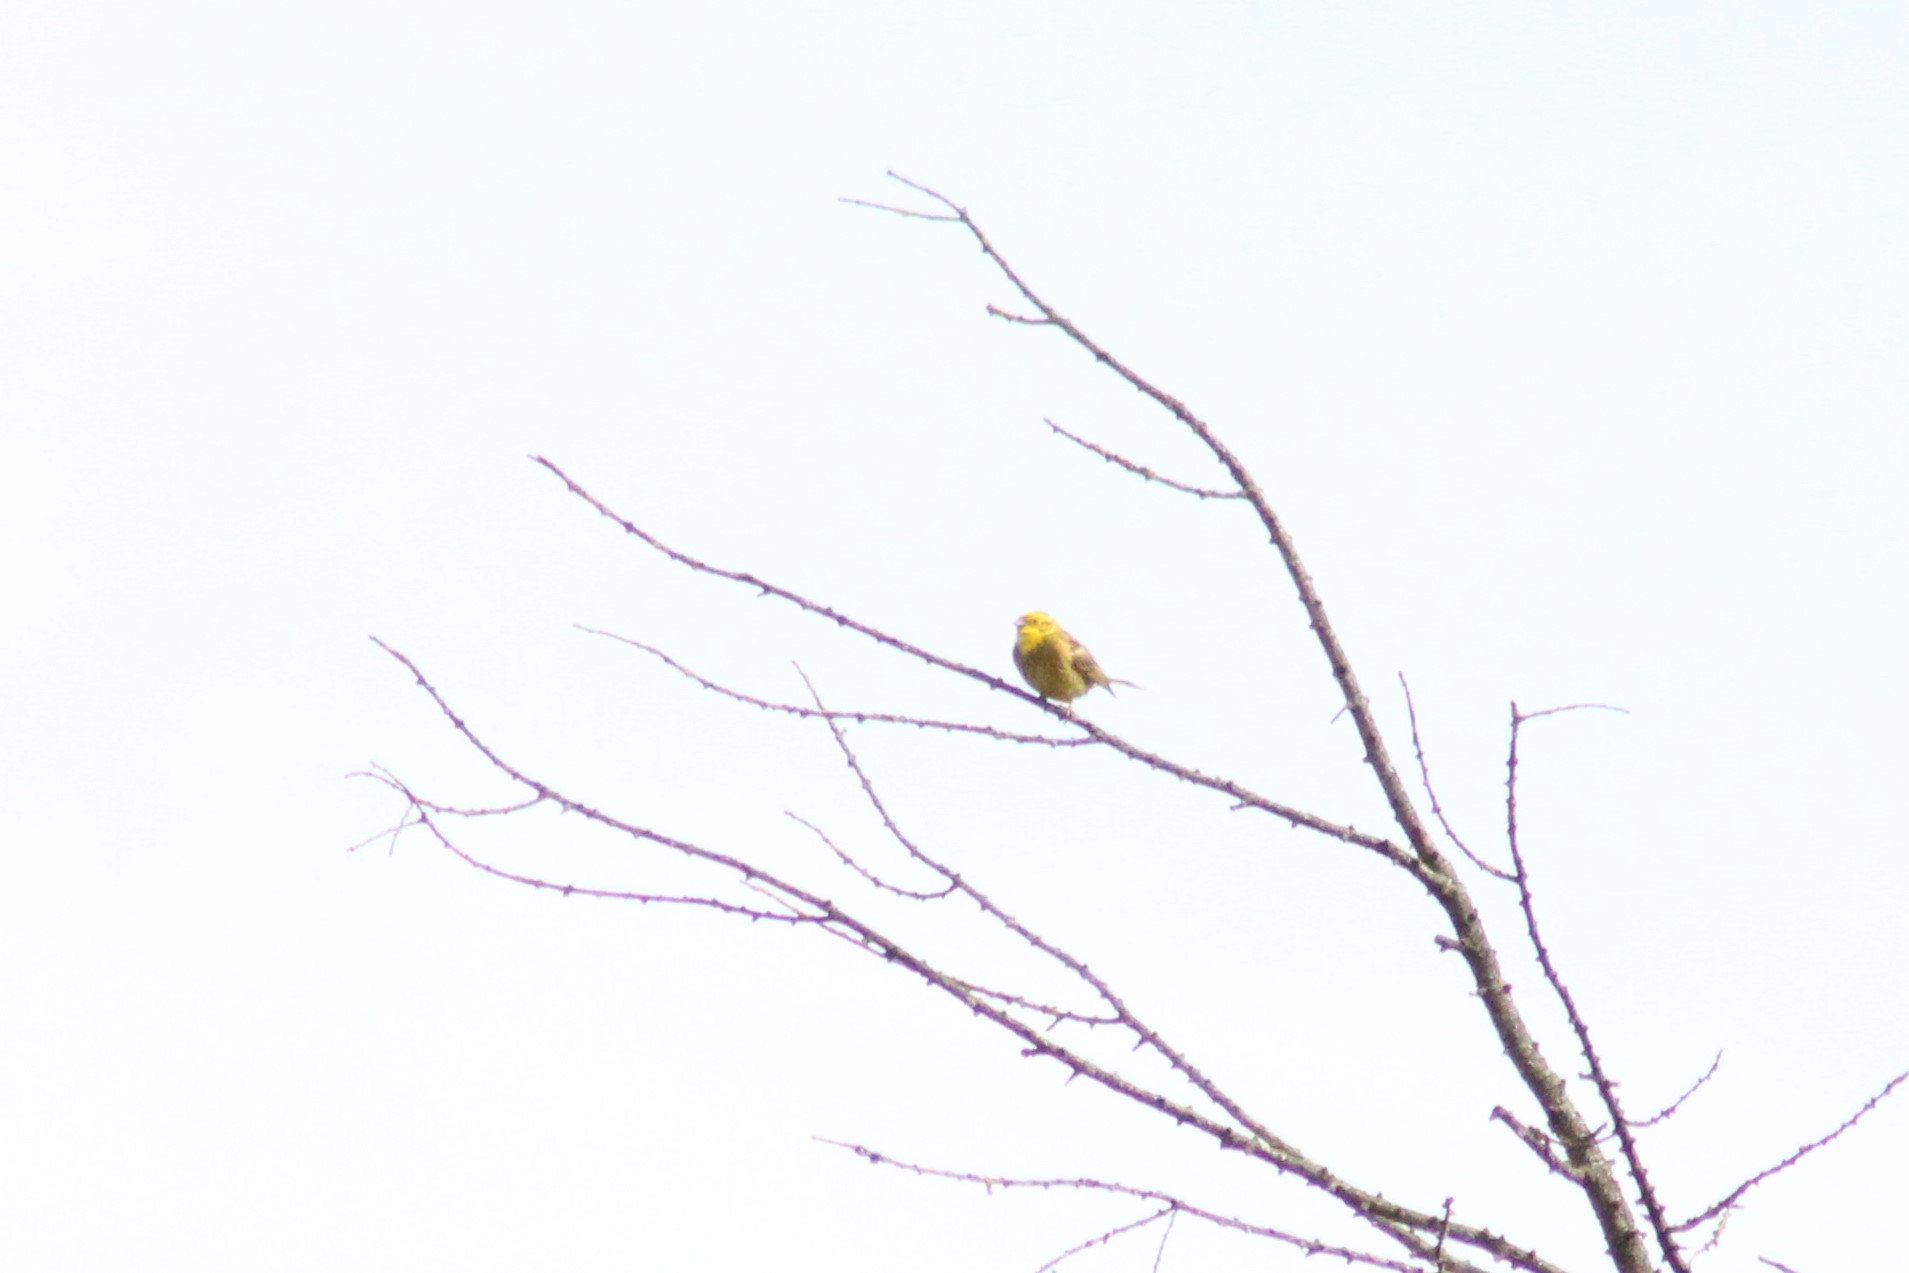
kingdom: Animalia
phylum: Chordata
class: Aves
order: Passeriformes
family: Emberizidae
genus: Emberiza
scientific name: Emberiza citrinella
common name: Yellowhammer
